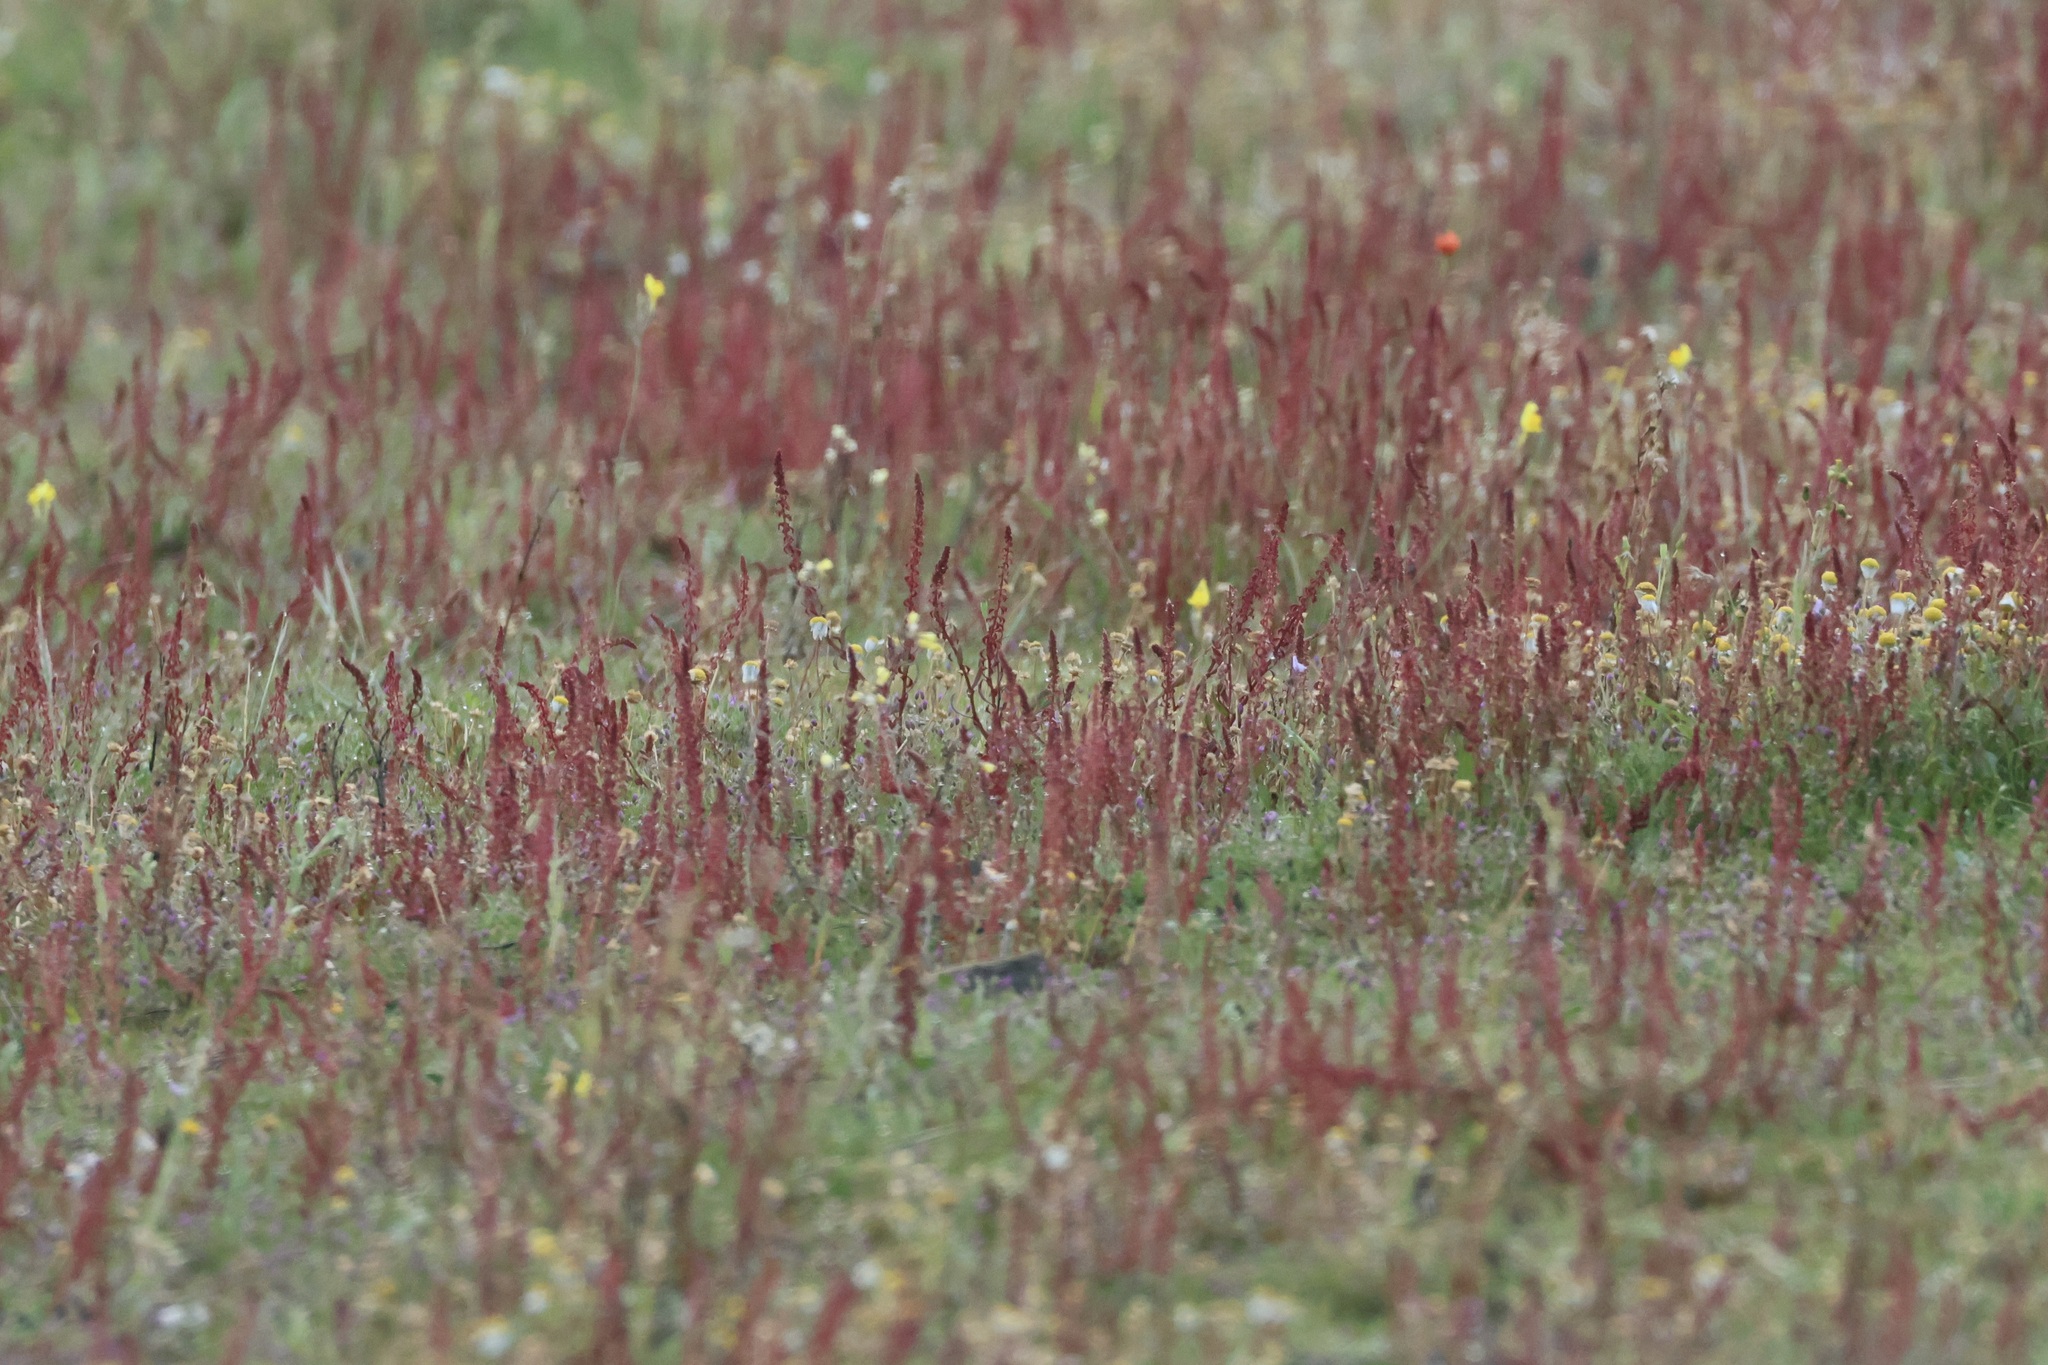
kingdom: Plantae
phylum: Tracheophyta
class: Magnoliopsida
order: Caryophyllales
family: Polygonaceae
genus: Rumex
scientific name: Rumex bucephalophorus
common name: Red dock
